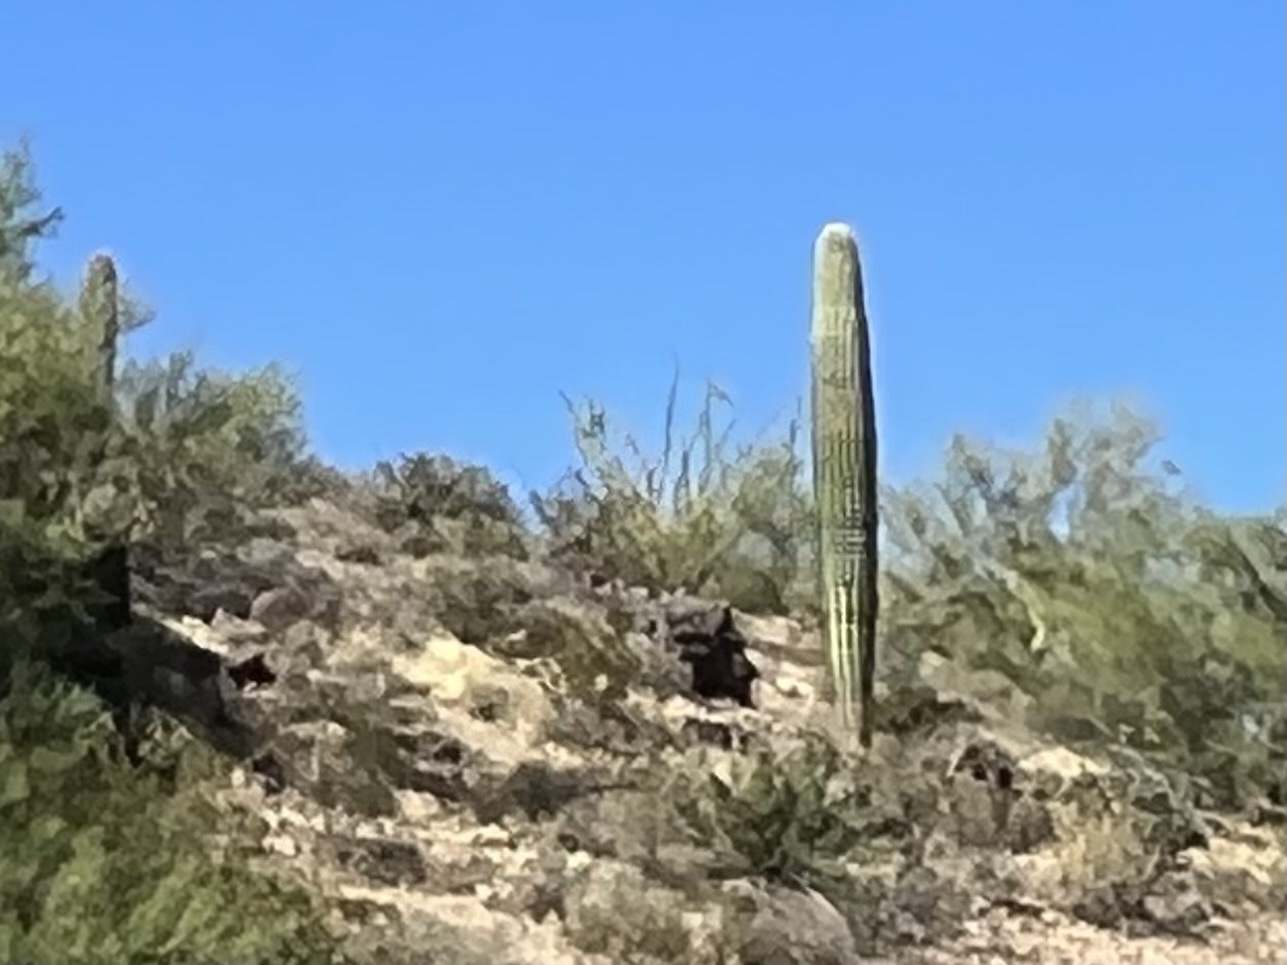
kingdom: Plantae
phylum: Tracheophyta
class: Magnoliopsida
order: Caryophyllales
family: Cactaceae
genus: Carnegiea
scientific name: Carnegiea gigantea
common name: Saguaro
